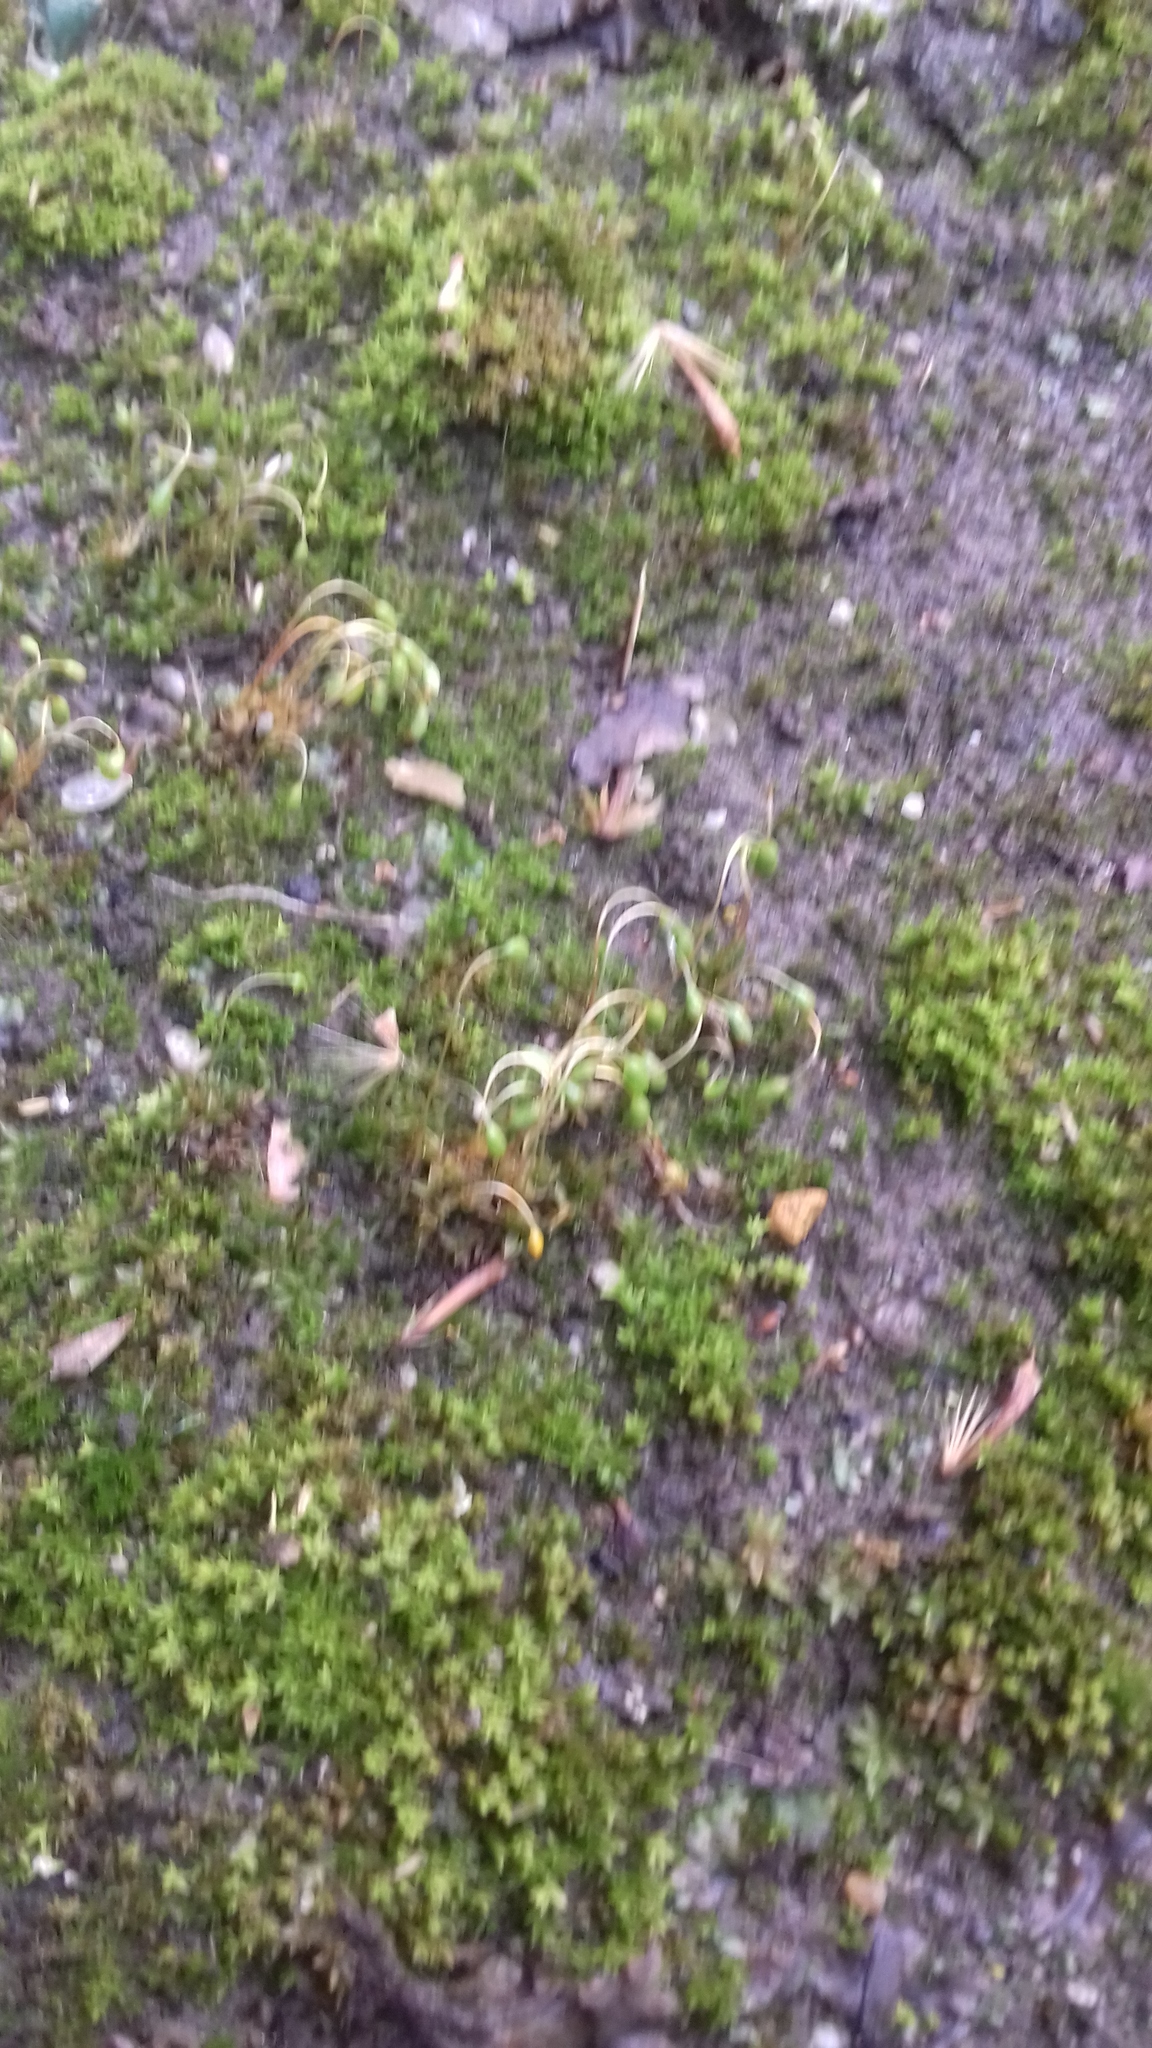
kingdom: Plantae
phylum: Bryophyta
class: Bryopsida
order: Funariales
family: Funariaceae
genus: Funaria
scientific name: Funaria hygrometrica
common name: Common cord moss
